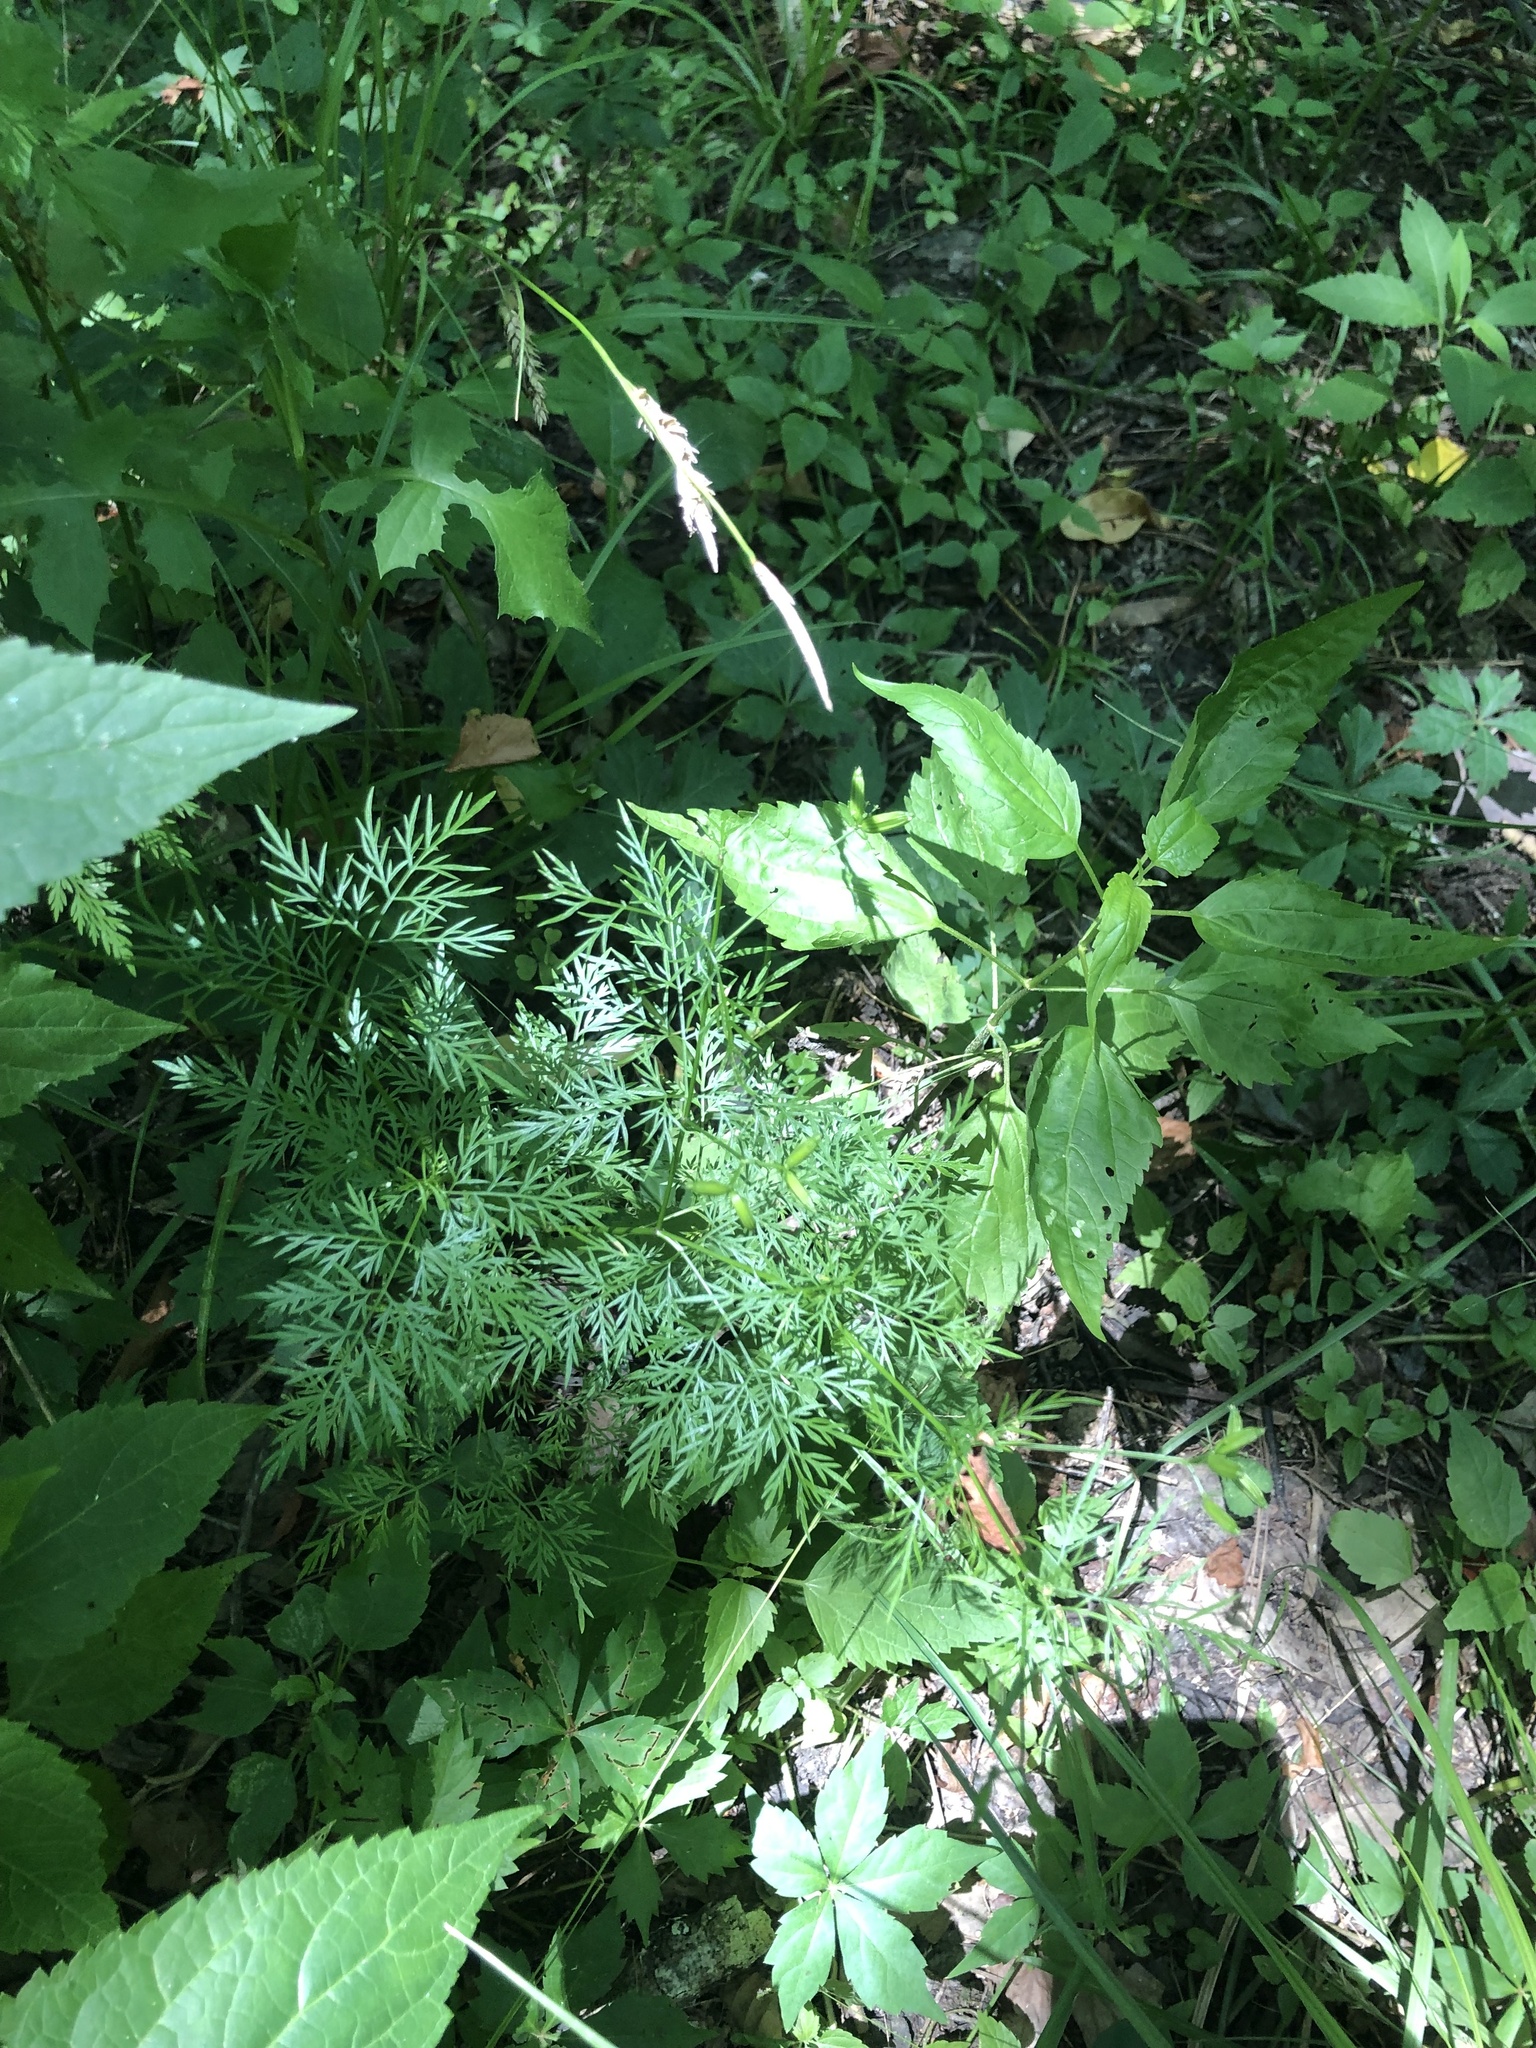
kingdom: Plantae
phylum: Tracheophyta
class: Magnoliopsida
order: Apiales
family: Apiaceae
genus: Trepocarpus
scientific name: Trepocarpus aethusae
